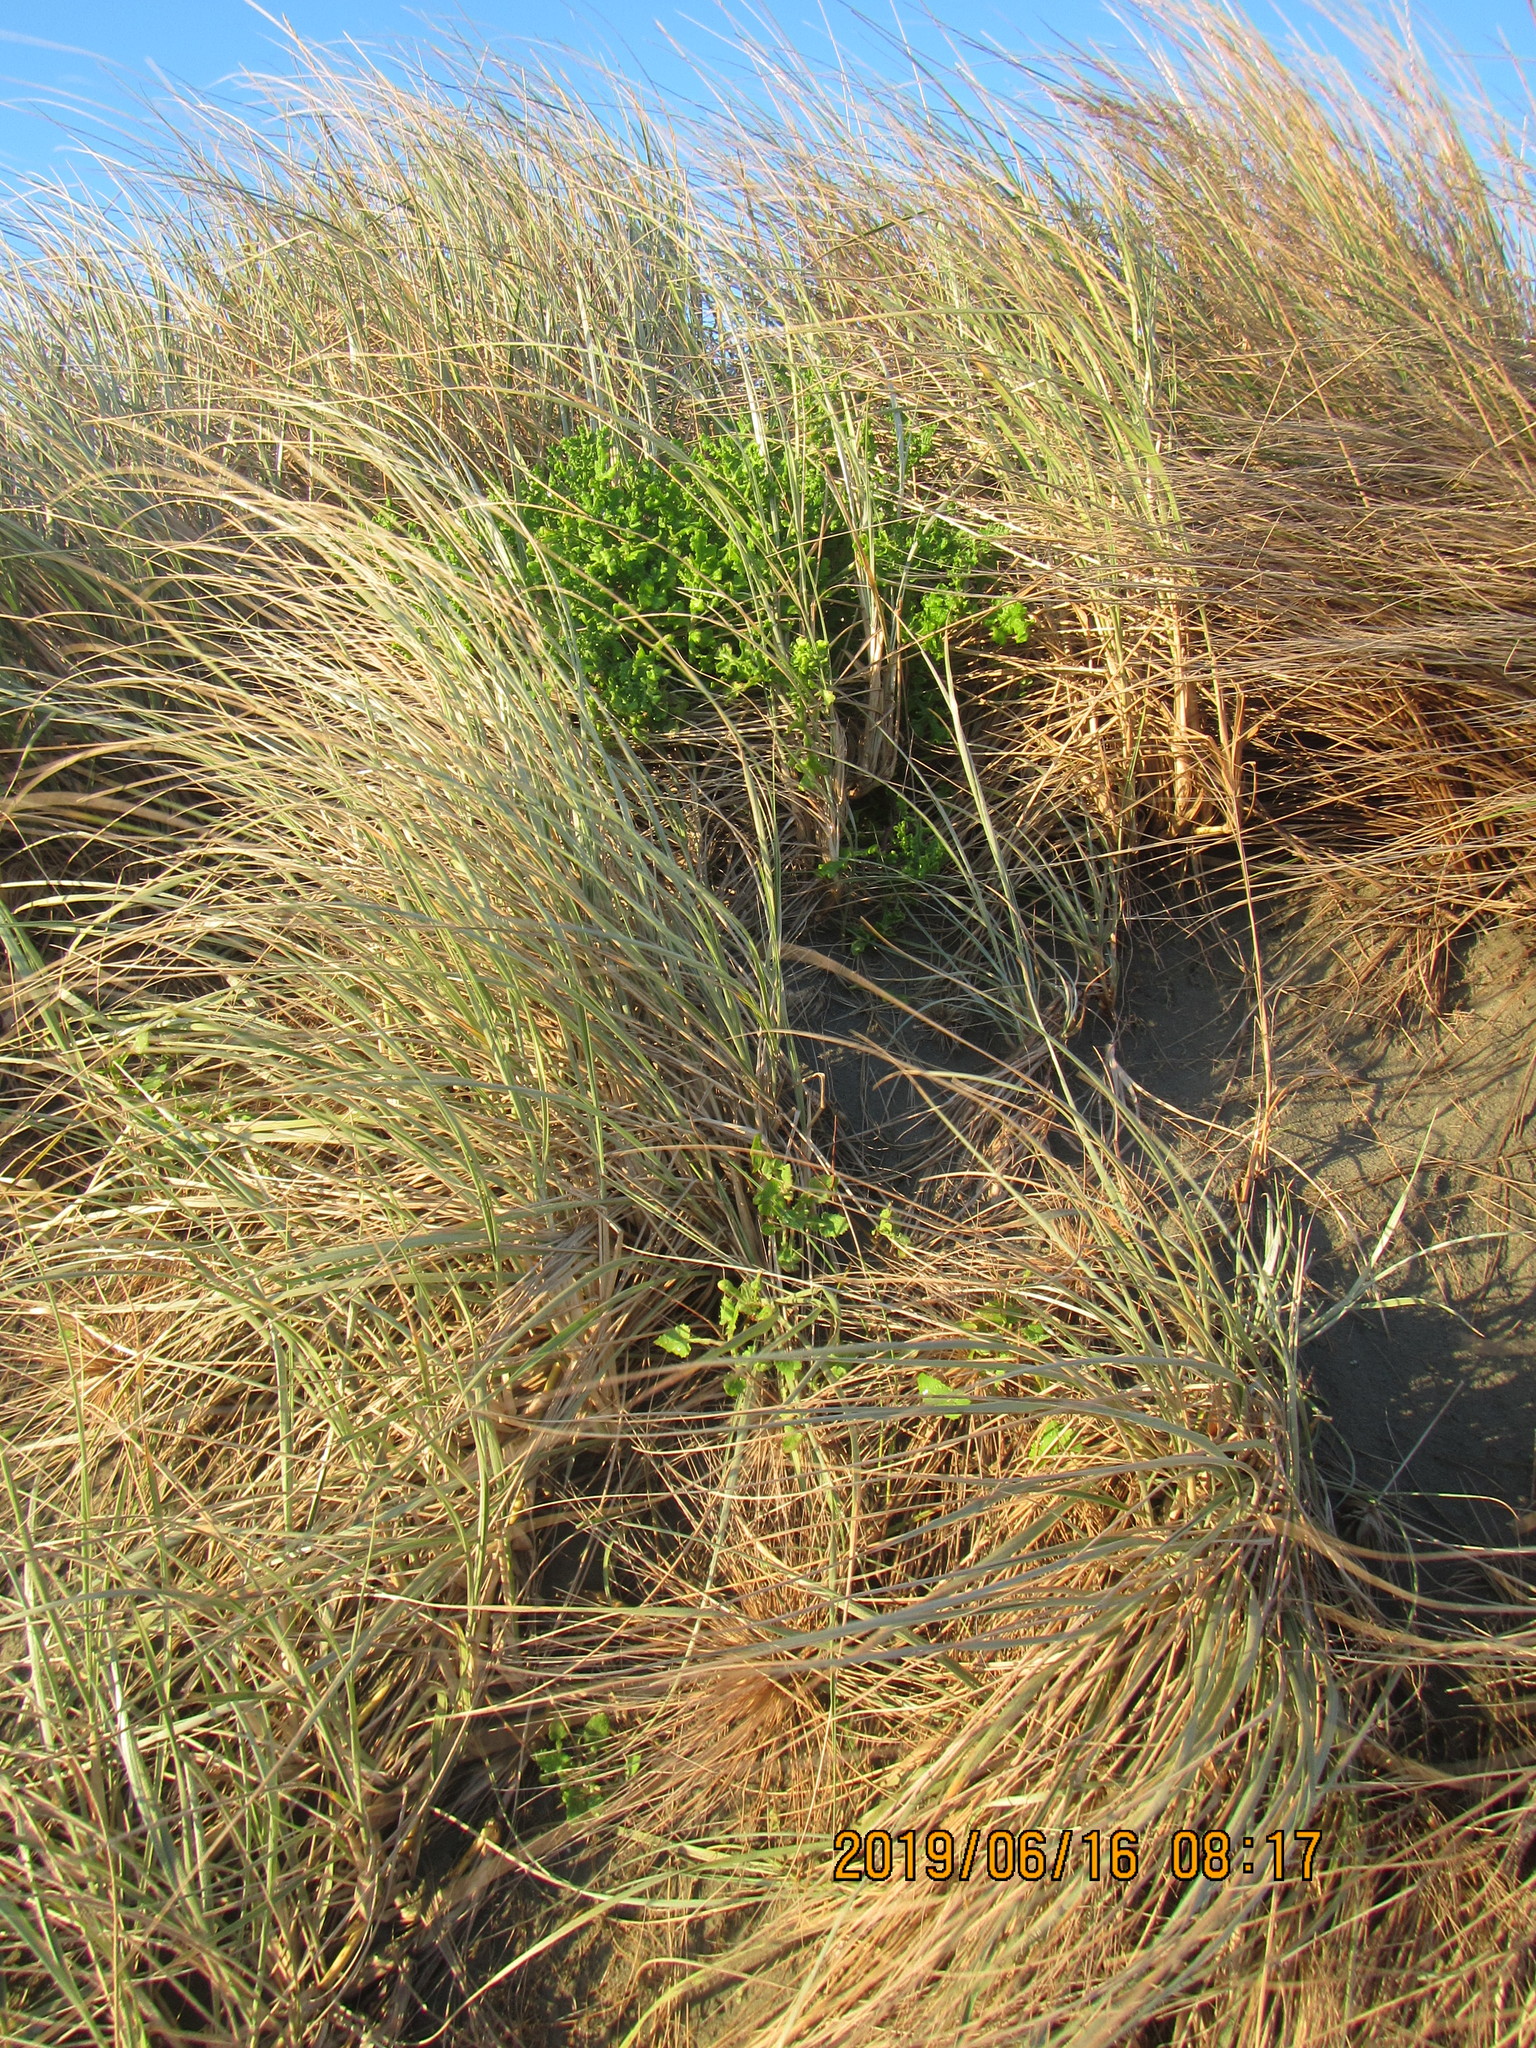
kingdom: Plantae
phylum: Tracheophyta
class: Magnoliopsida
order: Asterales
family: Asteraceae
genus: Senecio
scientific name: Senecio elegans
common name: Purple groundsel
